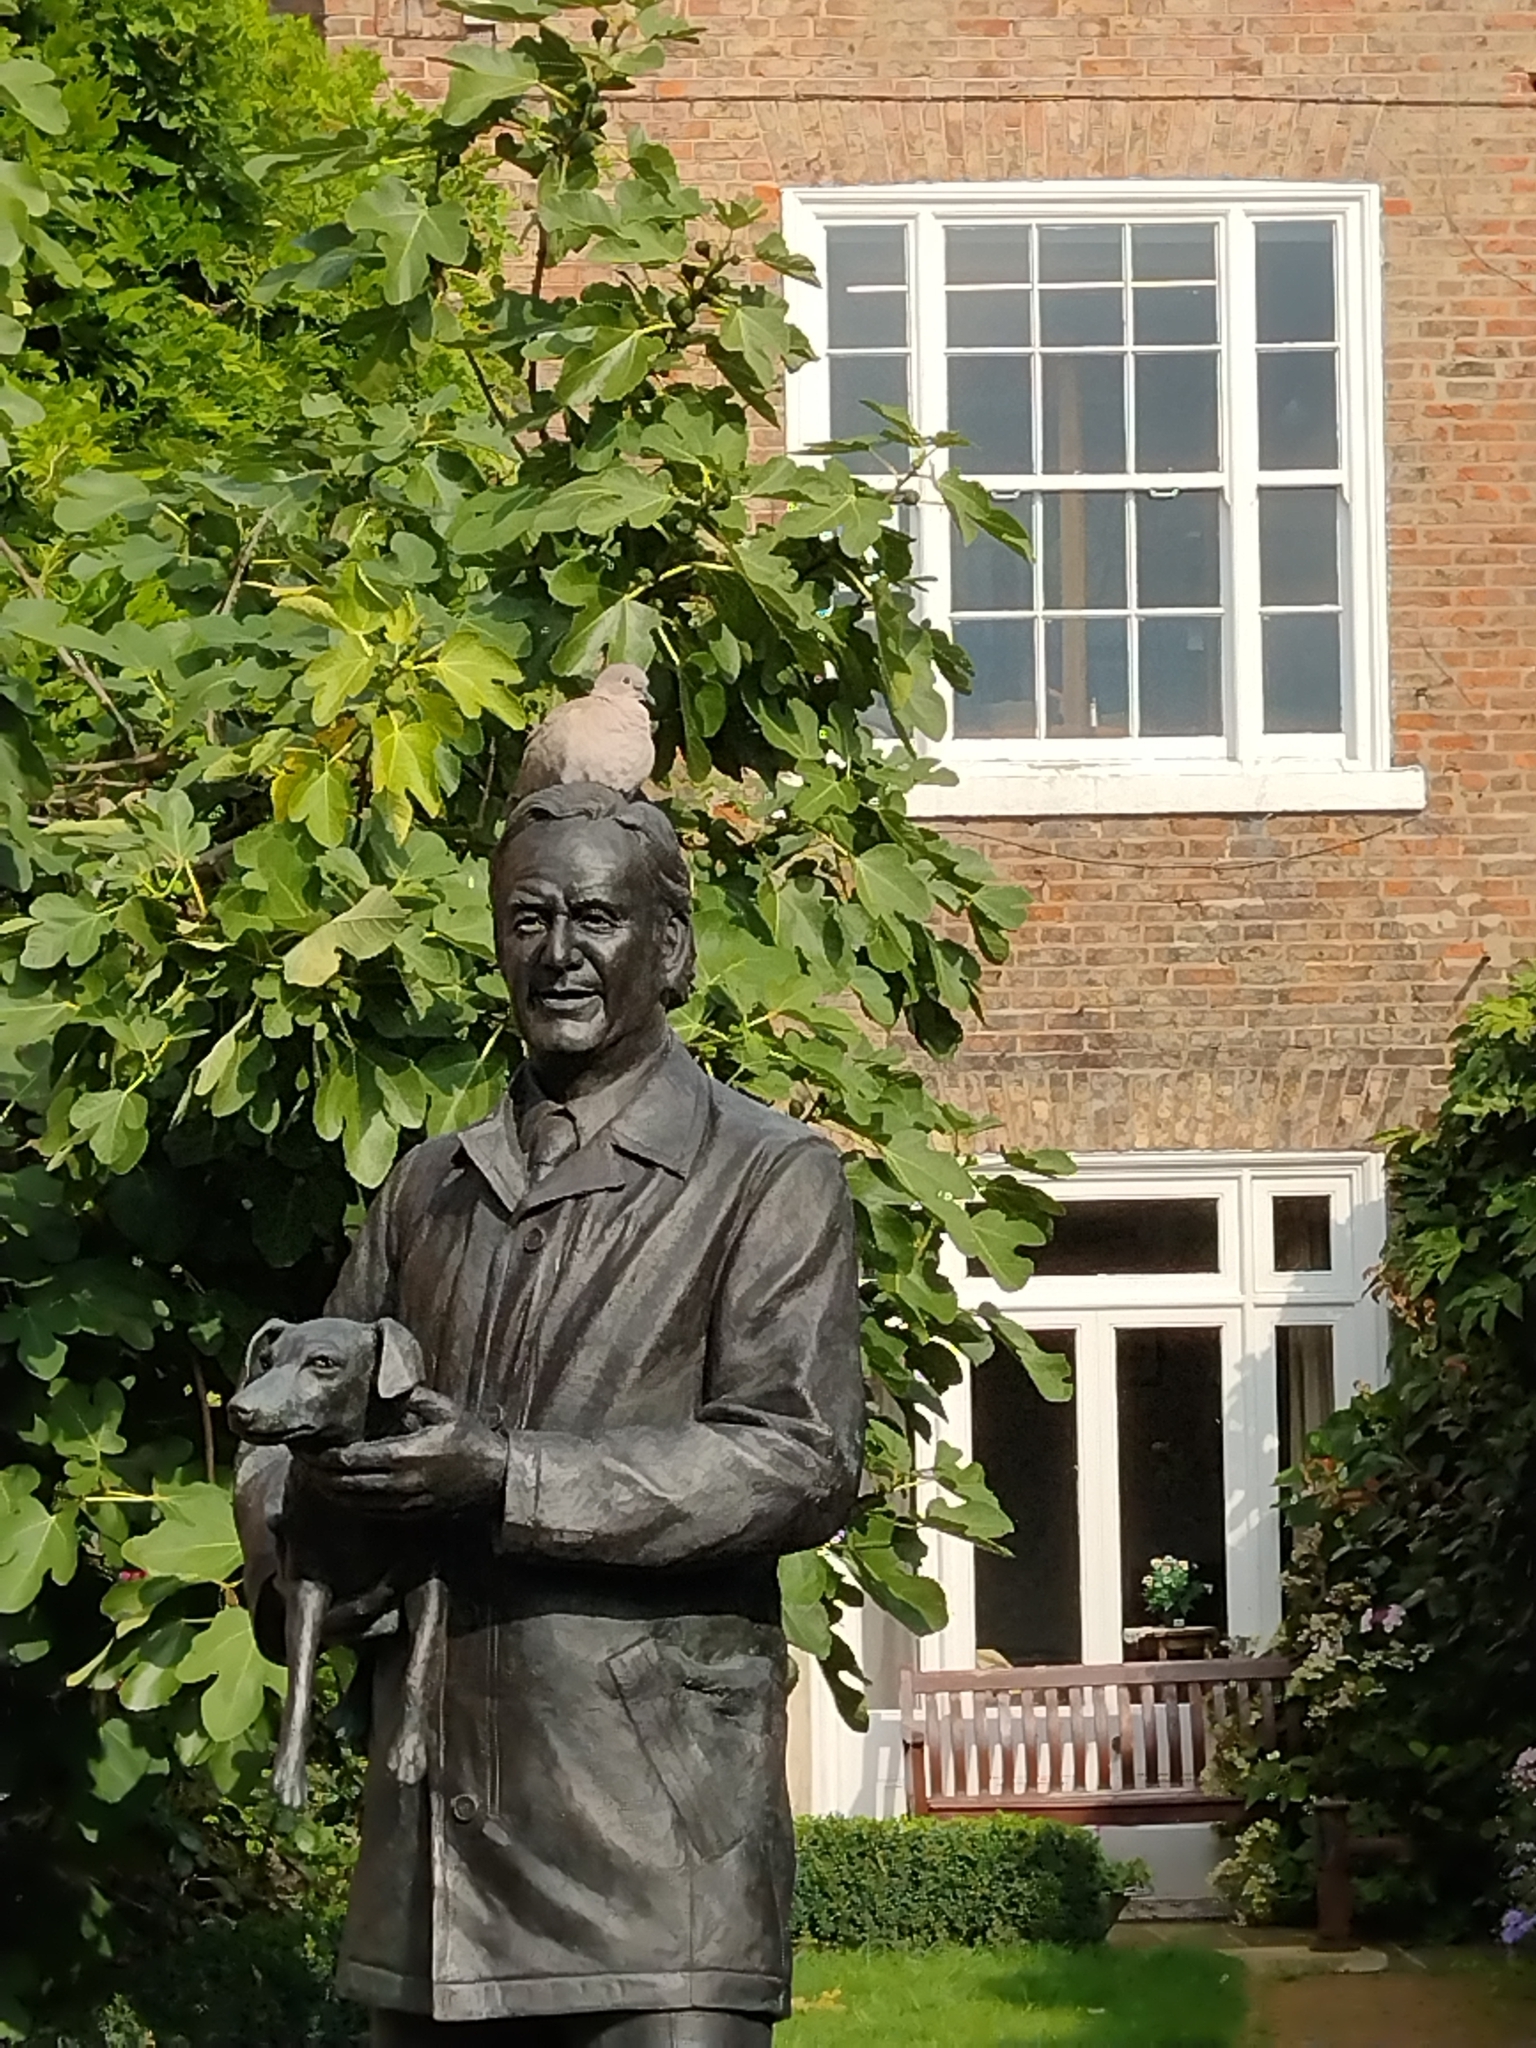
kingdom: Animalia
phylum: Chordata
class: Aves
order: Columbiformes
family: Columbidae
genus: Streptopelia
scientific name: Streptopelia decaocto
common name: Eurasian collared dove
